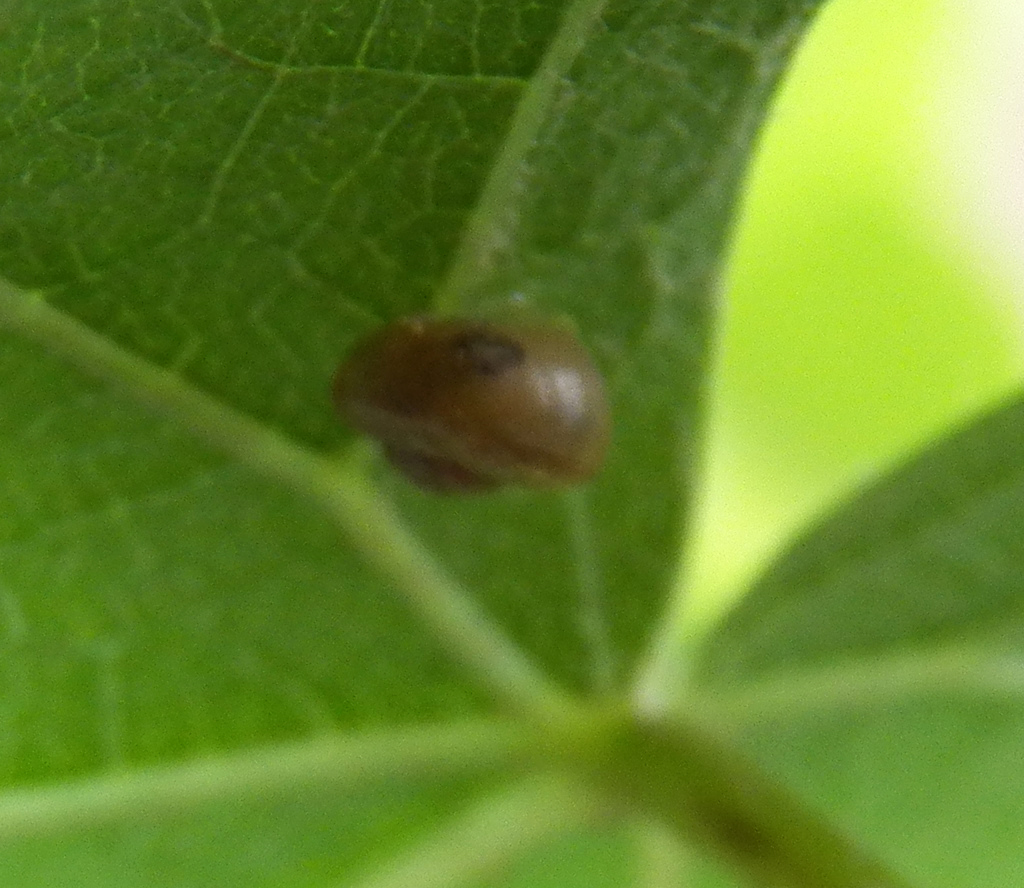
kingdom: Animalia
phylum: Mollusca
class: Gastropoda
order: Stylommatophora
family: Camaenidae
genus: Bradybaena
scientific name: Bradybaena similaris
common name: Asian trampsnail
